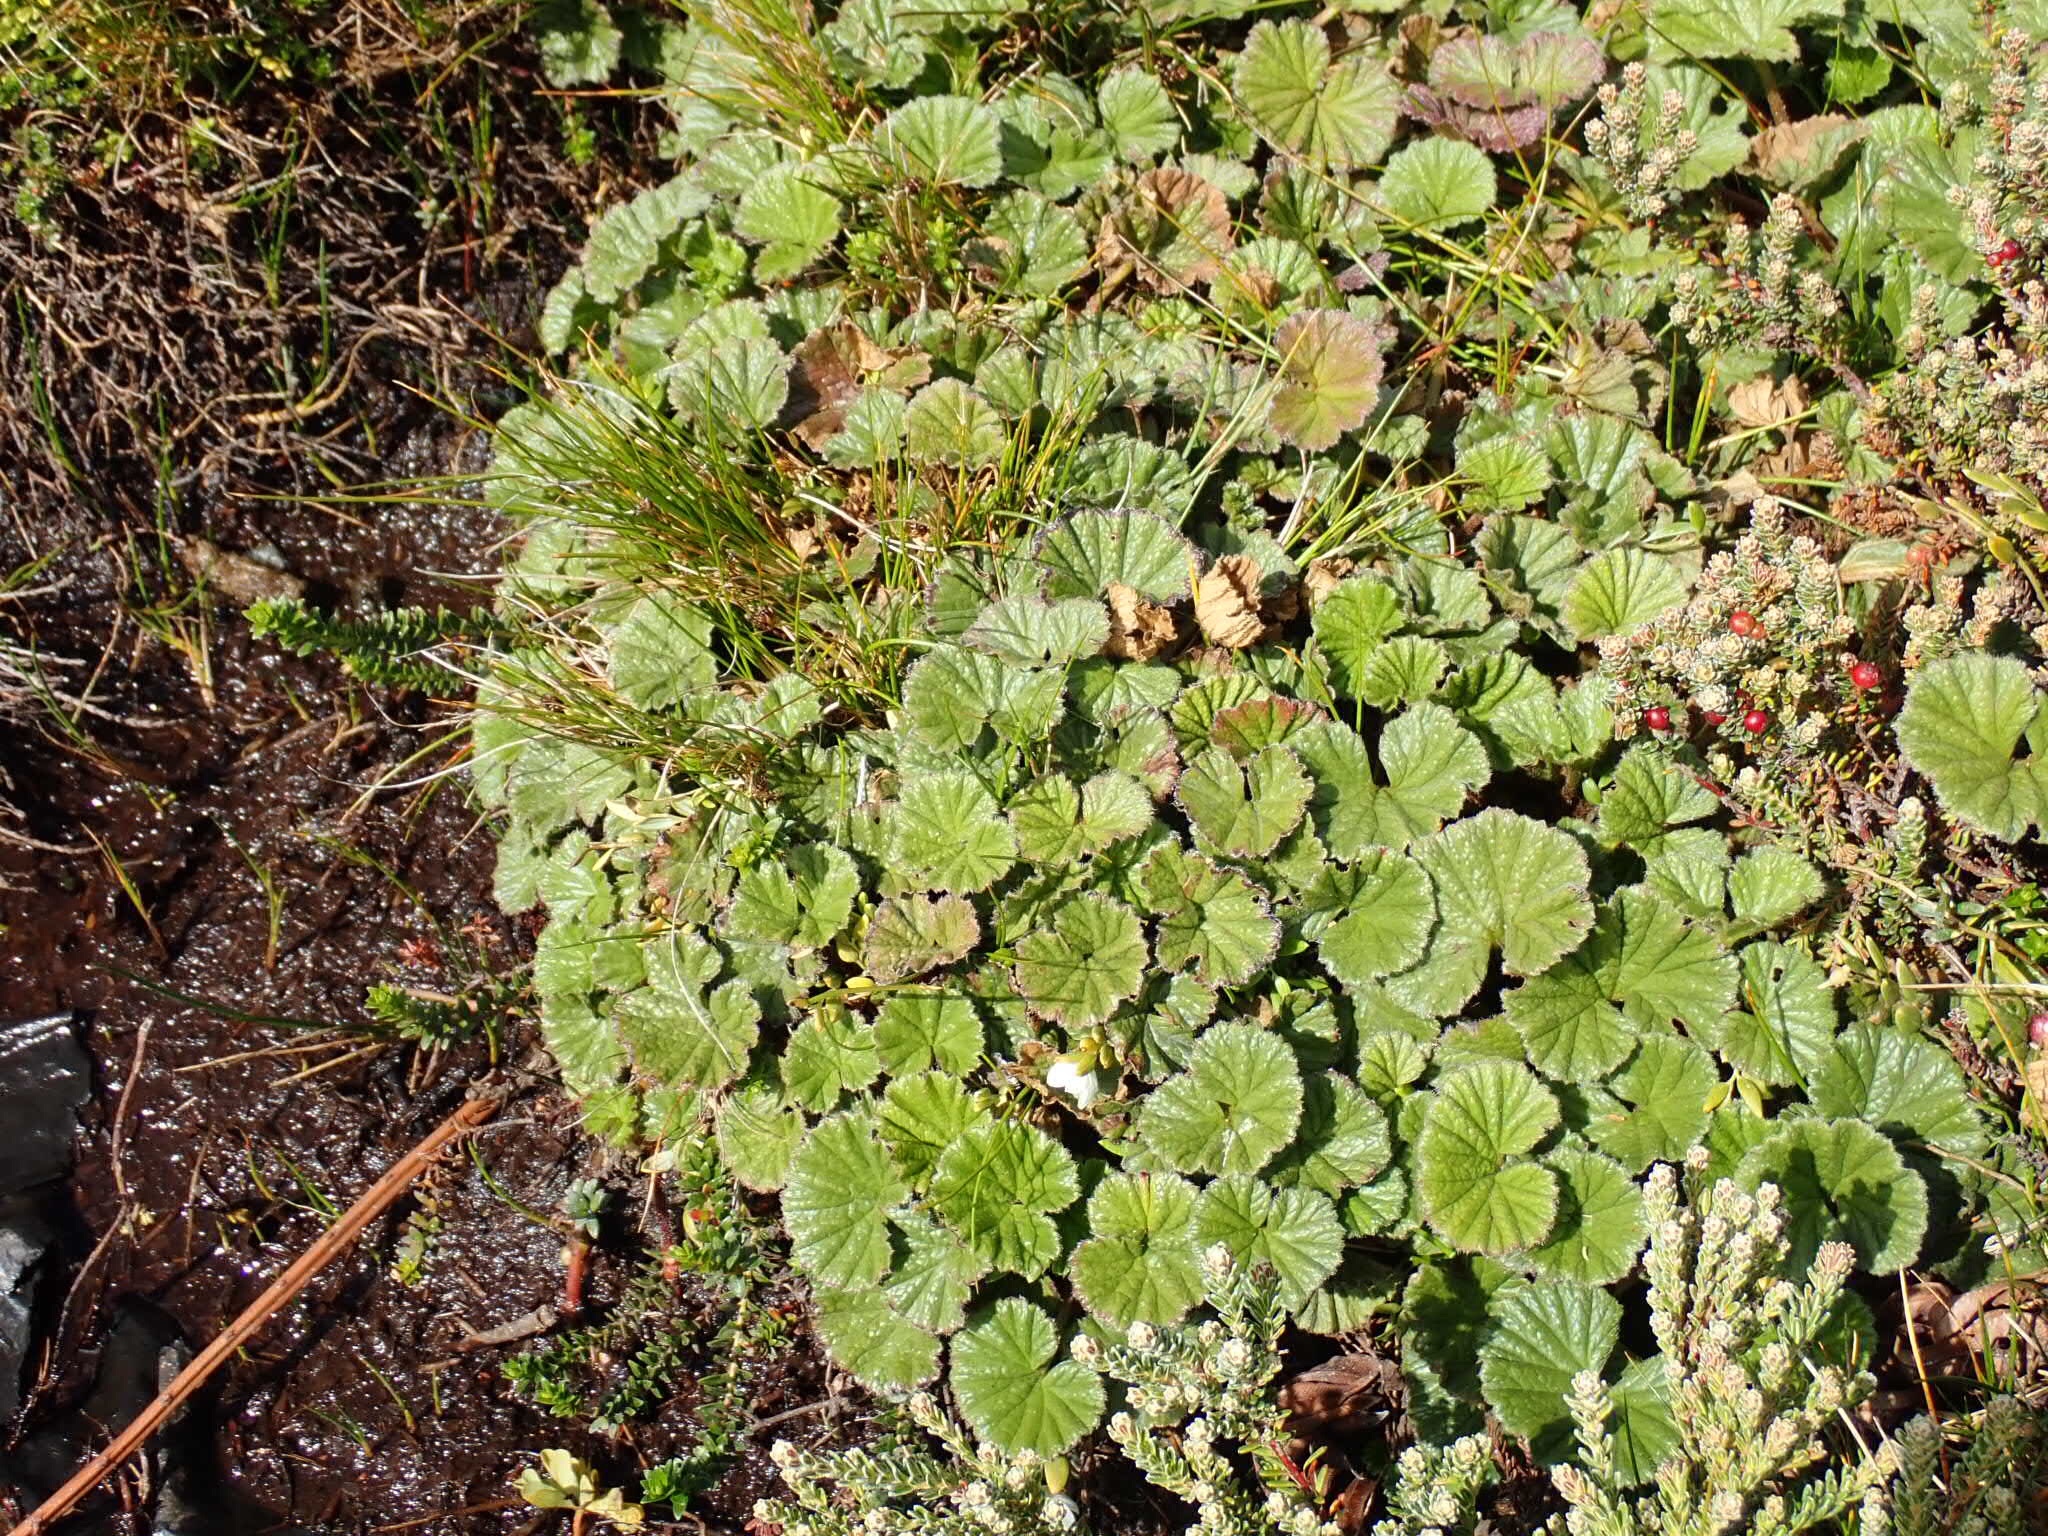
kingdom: Plantae
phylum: Tracheophyta
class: Magnoliopsida
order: Gunnerales
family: Gunneraceae
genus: Gunnera
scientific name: Gunnera magellanica
